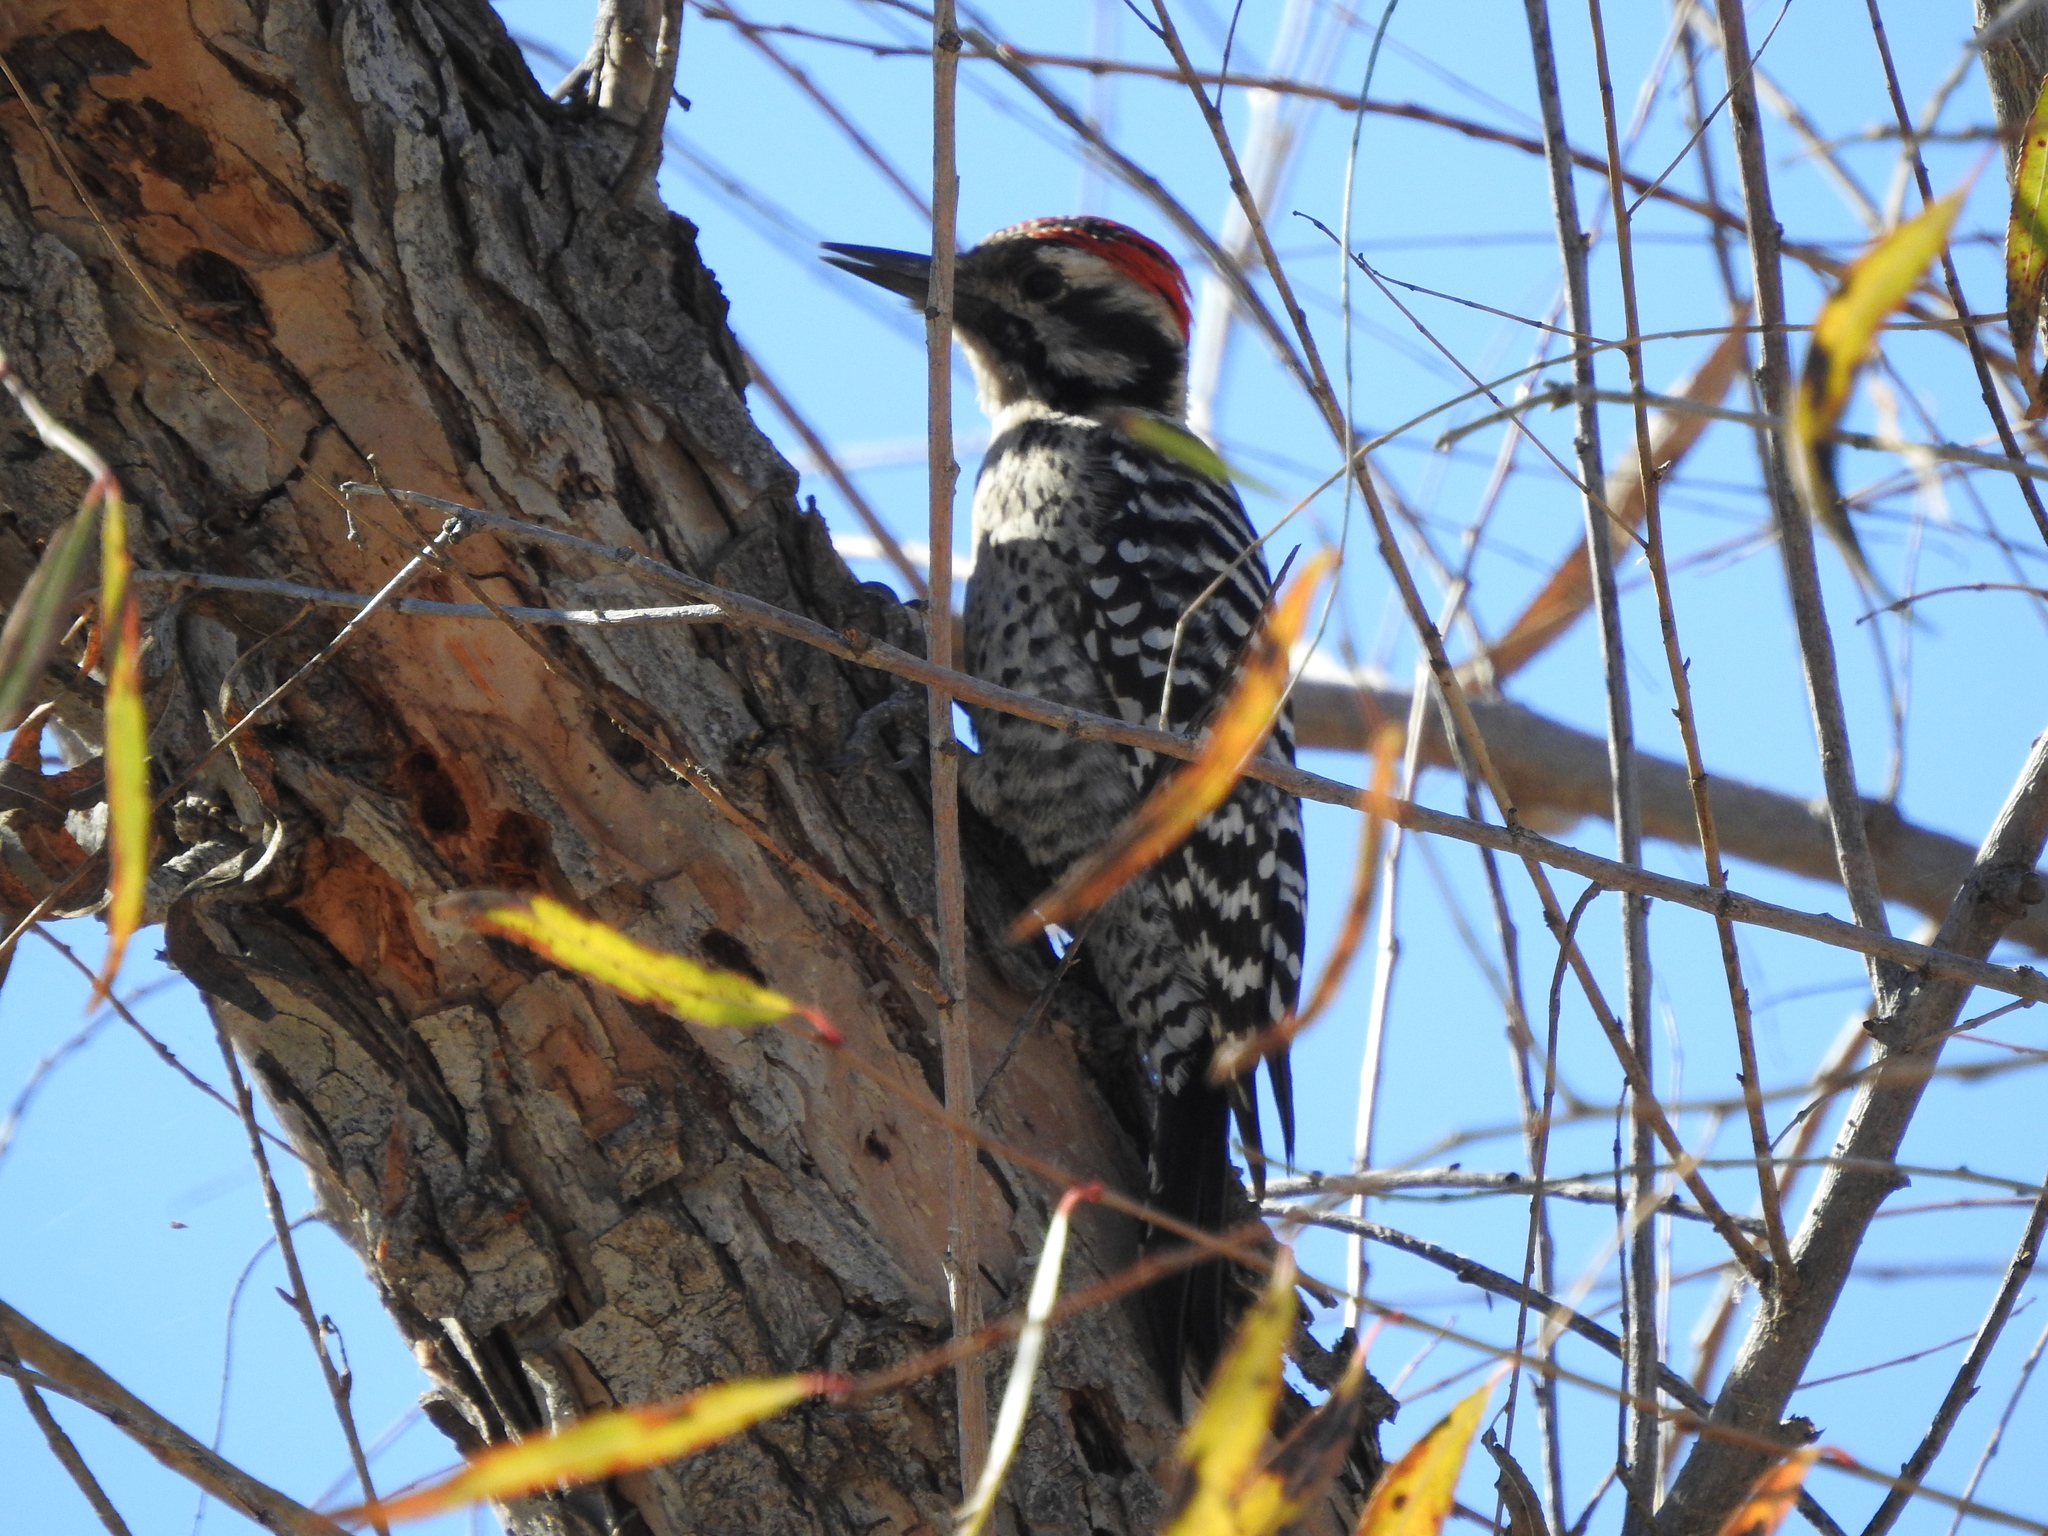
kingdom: Animalia
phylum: Chordata
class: Aves
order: Piciformes
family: Picidae
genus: Dryobates
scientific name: Dryobates scalaris
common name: Ladder-backed woodpecker
